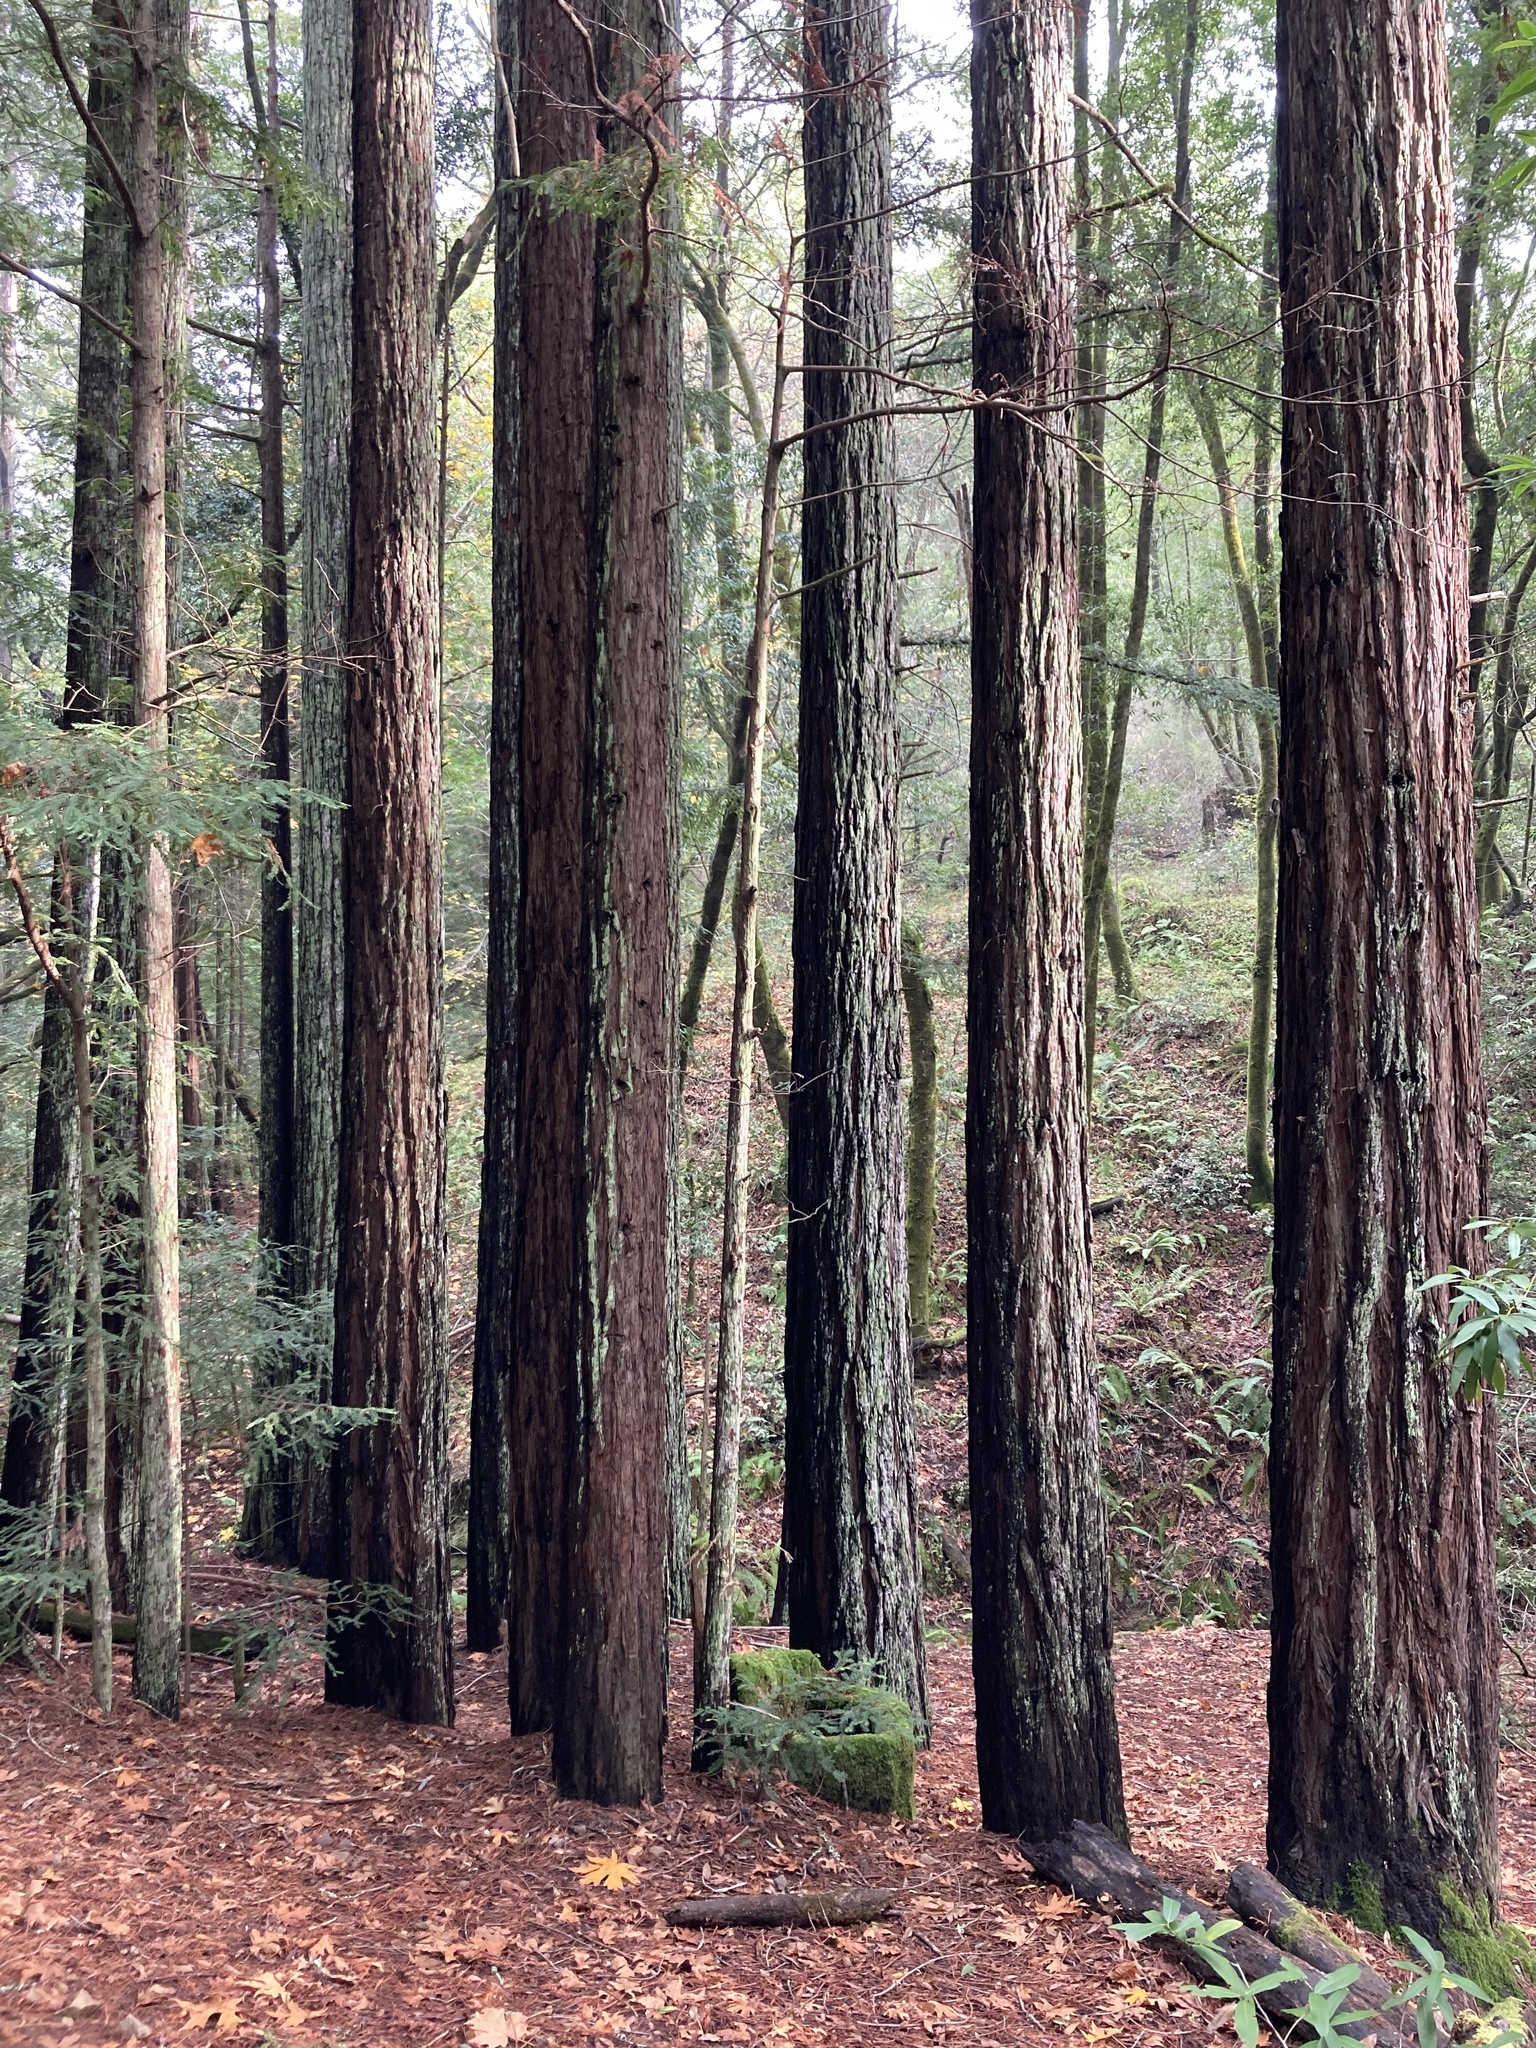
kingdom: Plantae
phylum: Tracheophyta
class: Pinopsida
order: Pinales
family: Cupressaceae
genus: Sequoia
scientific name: Sequoia sempervirens
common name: Coast redwood
